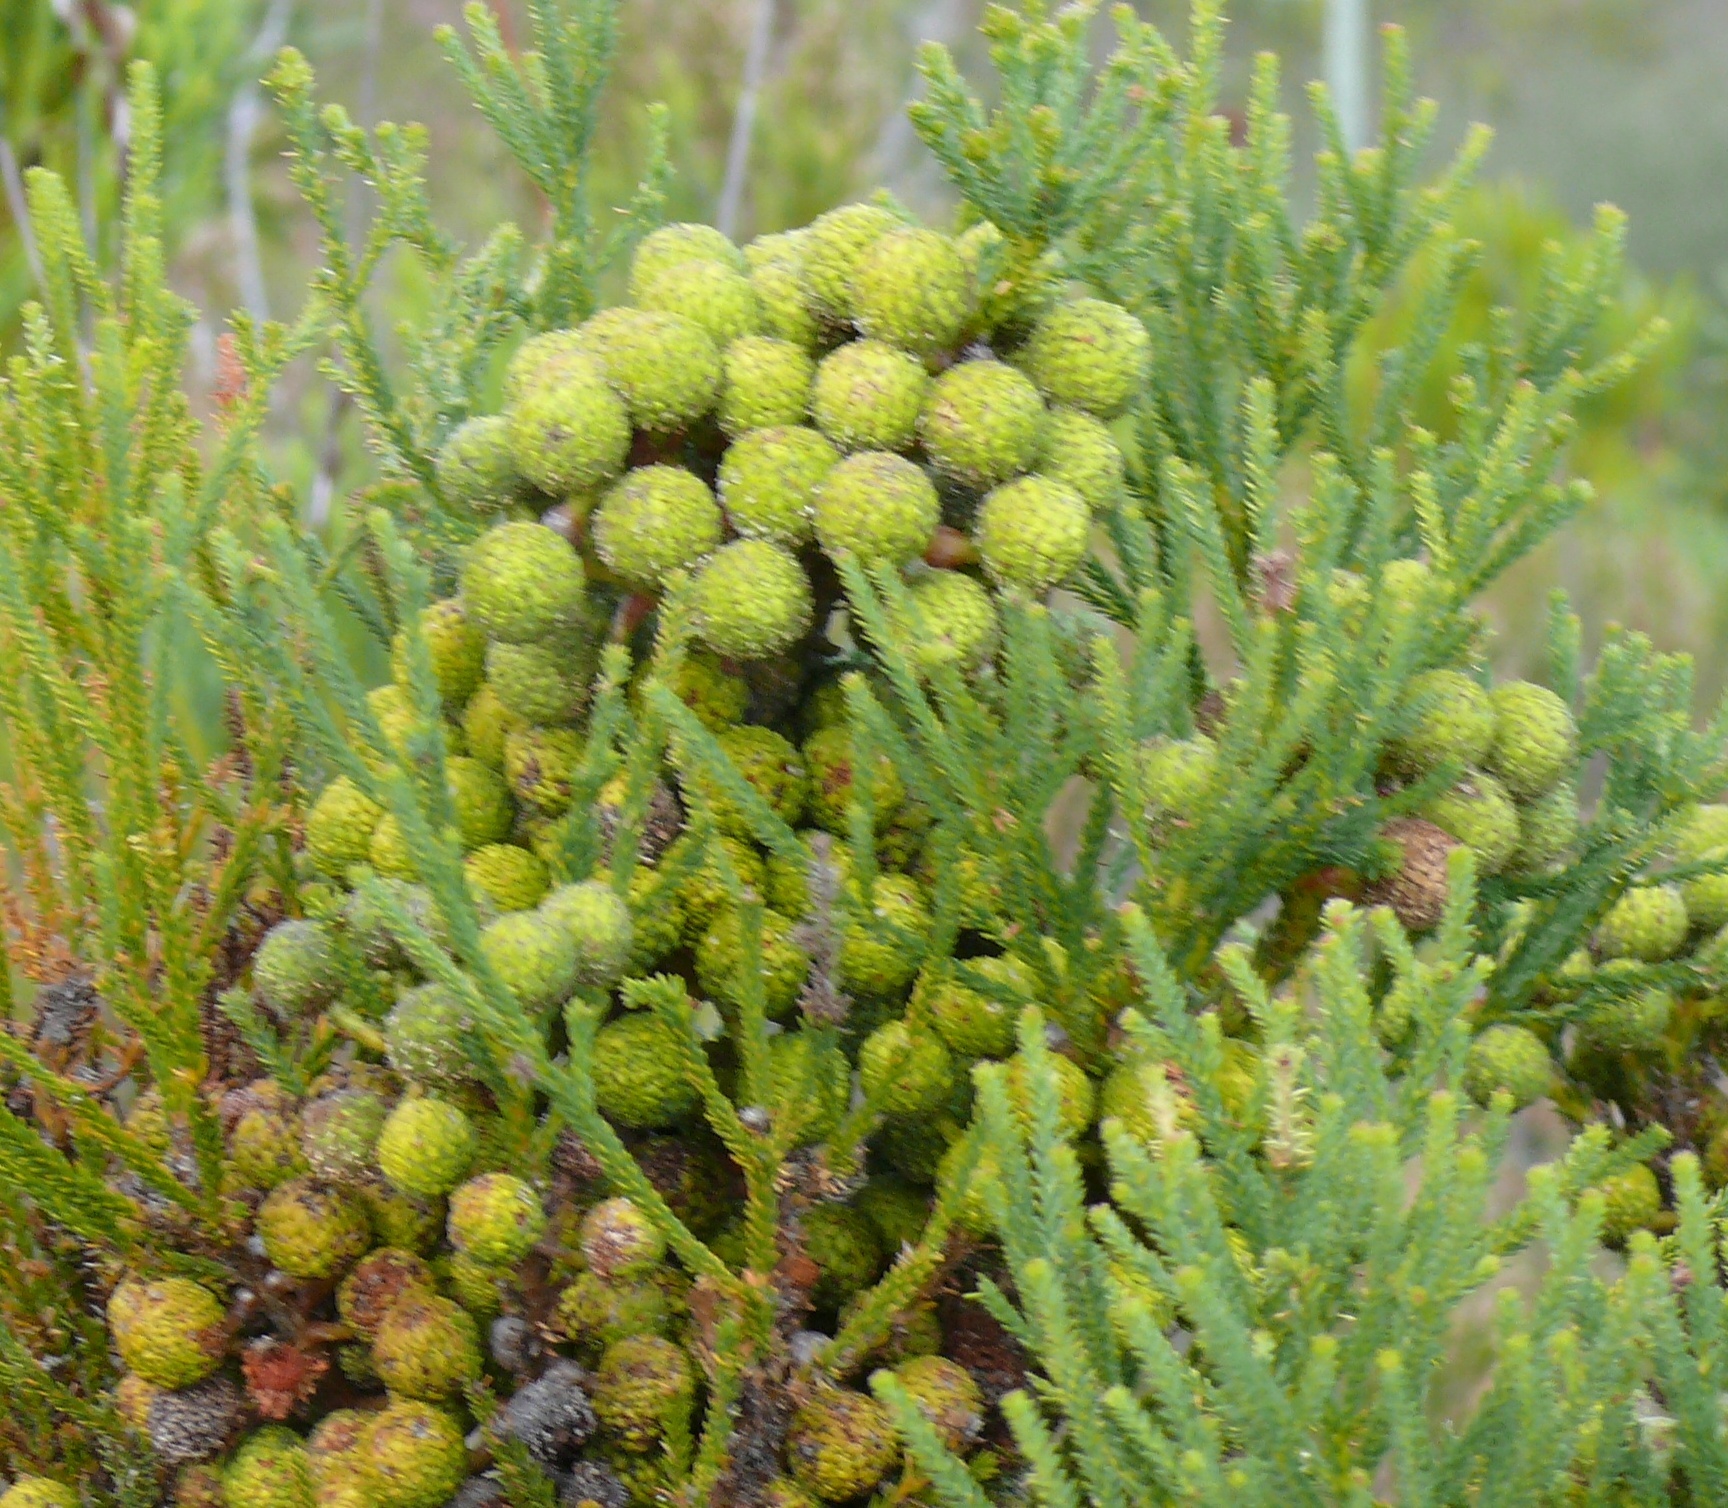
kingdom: Plantae
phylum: Tracheophyta
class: Magnoliopsida
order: Bruniales
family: Bruniaceae
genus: Berzelia
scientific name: Berzelia intermedia
